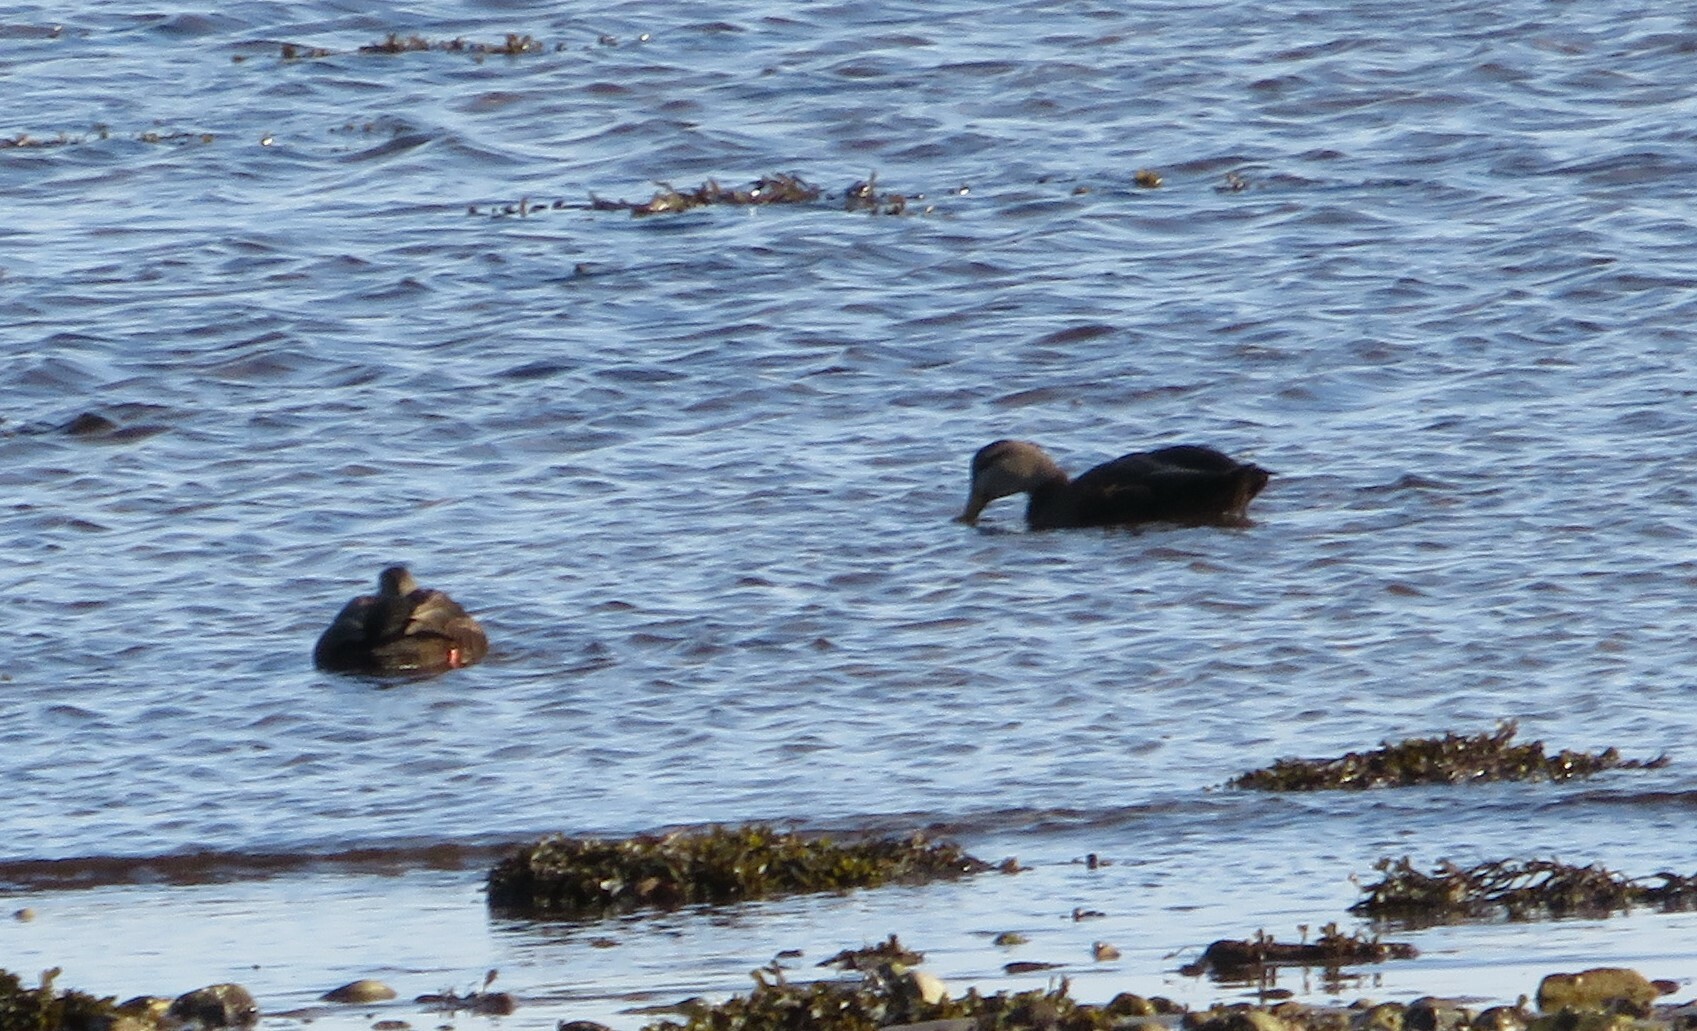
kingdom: Animalia
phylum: Chordata
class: Aves
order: Anseriformes
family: Anatidae
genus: Anas
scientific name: Anas rubripes
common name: American black duck
